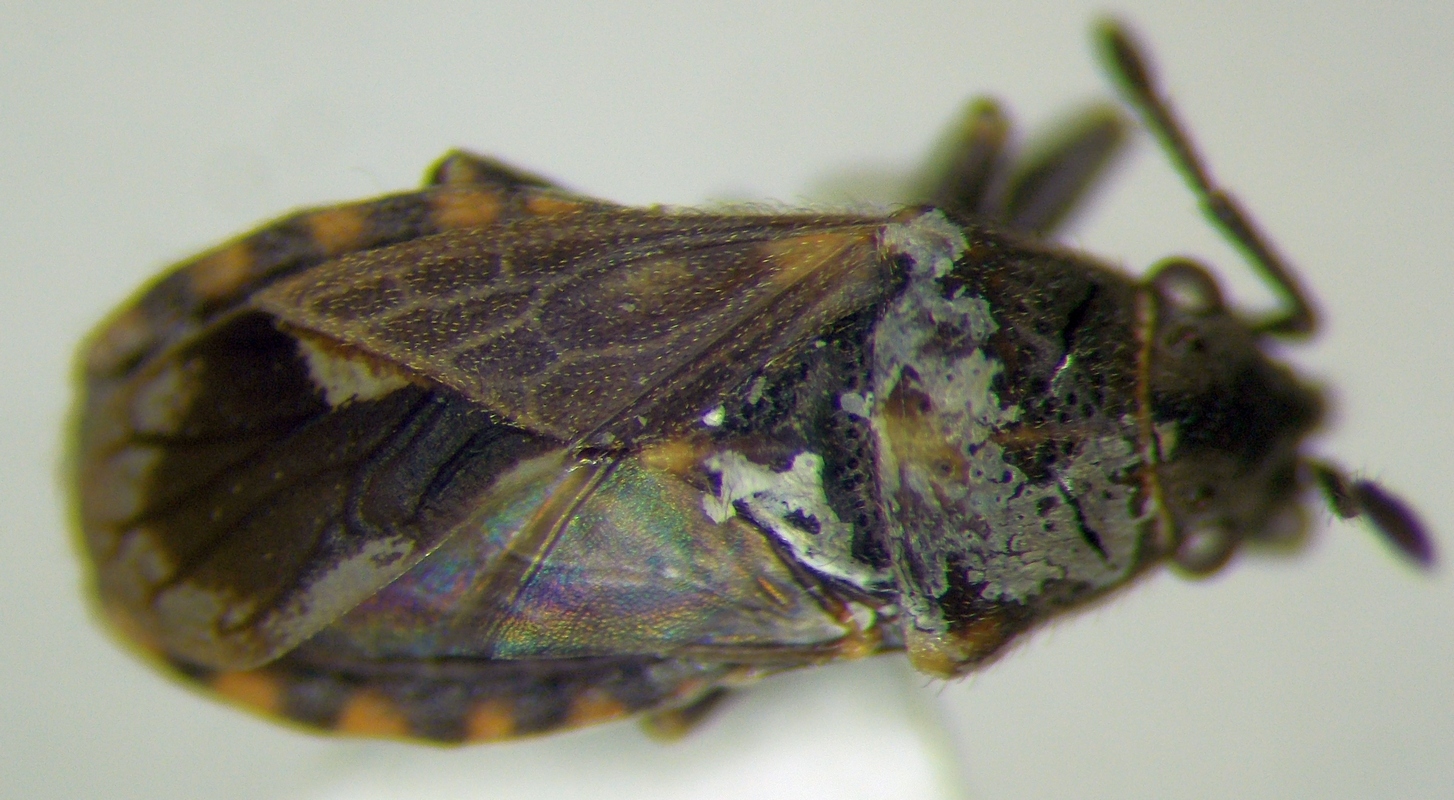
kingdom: Animalia
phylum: Arthropoda
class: Insecta
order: Hemiptera
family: Lygaeidae
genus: Lygaeosoma
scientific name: Lygaeosoma sardeum
